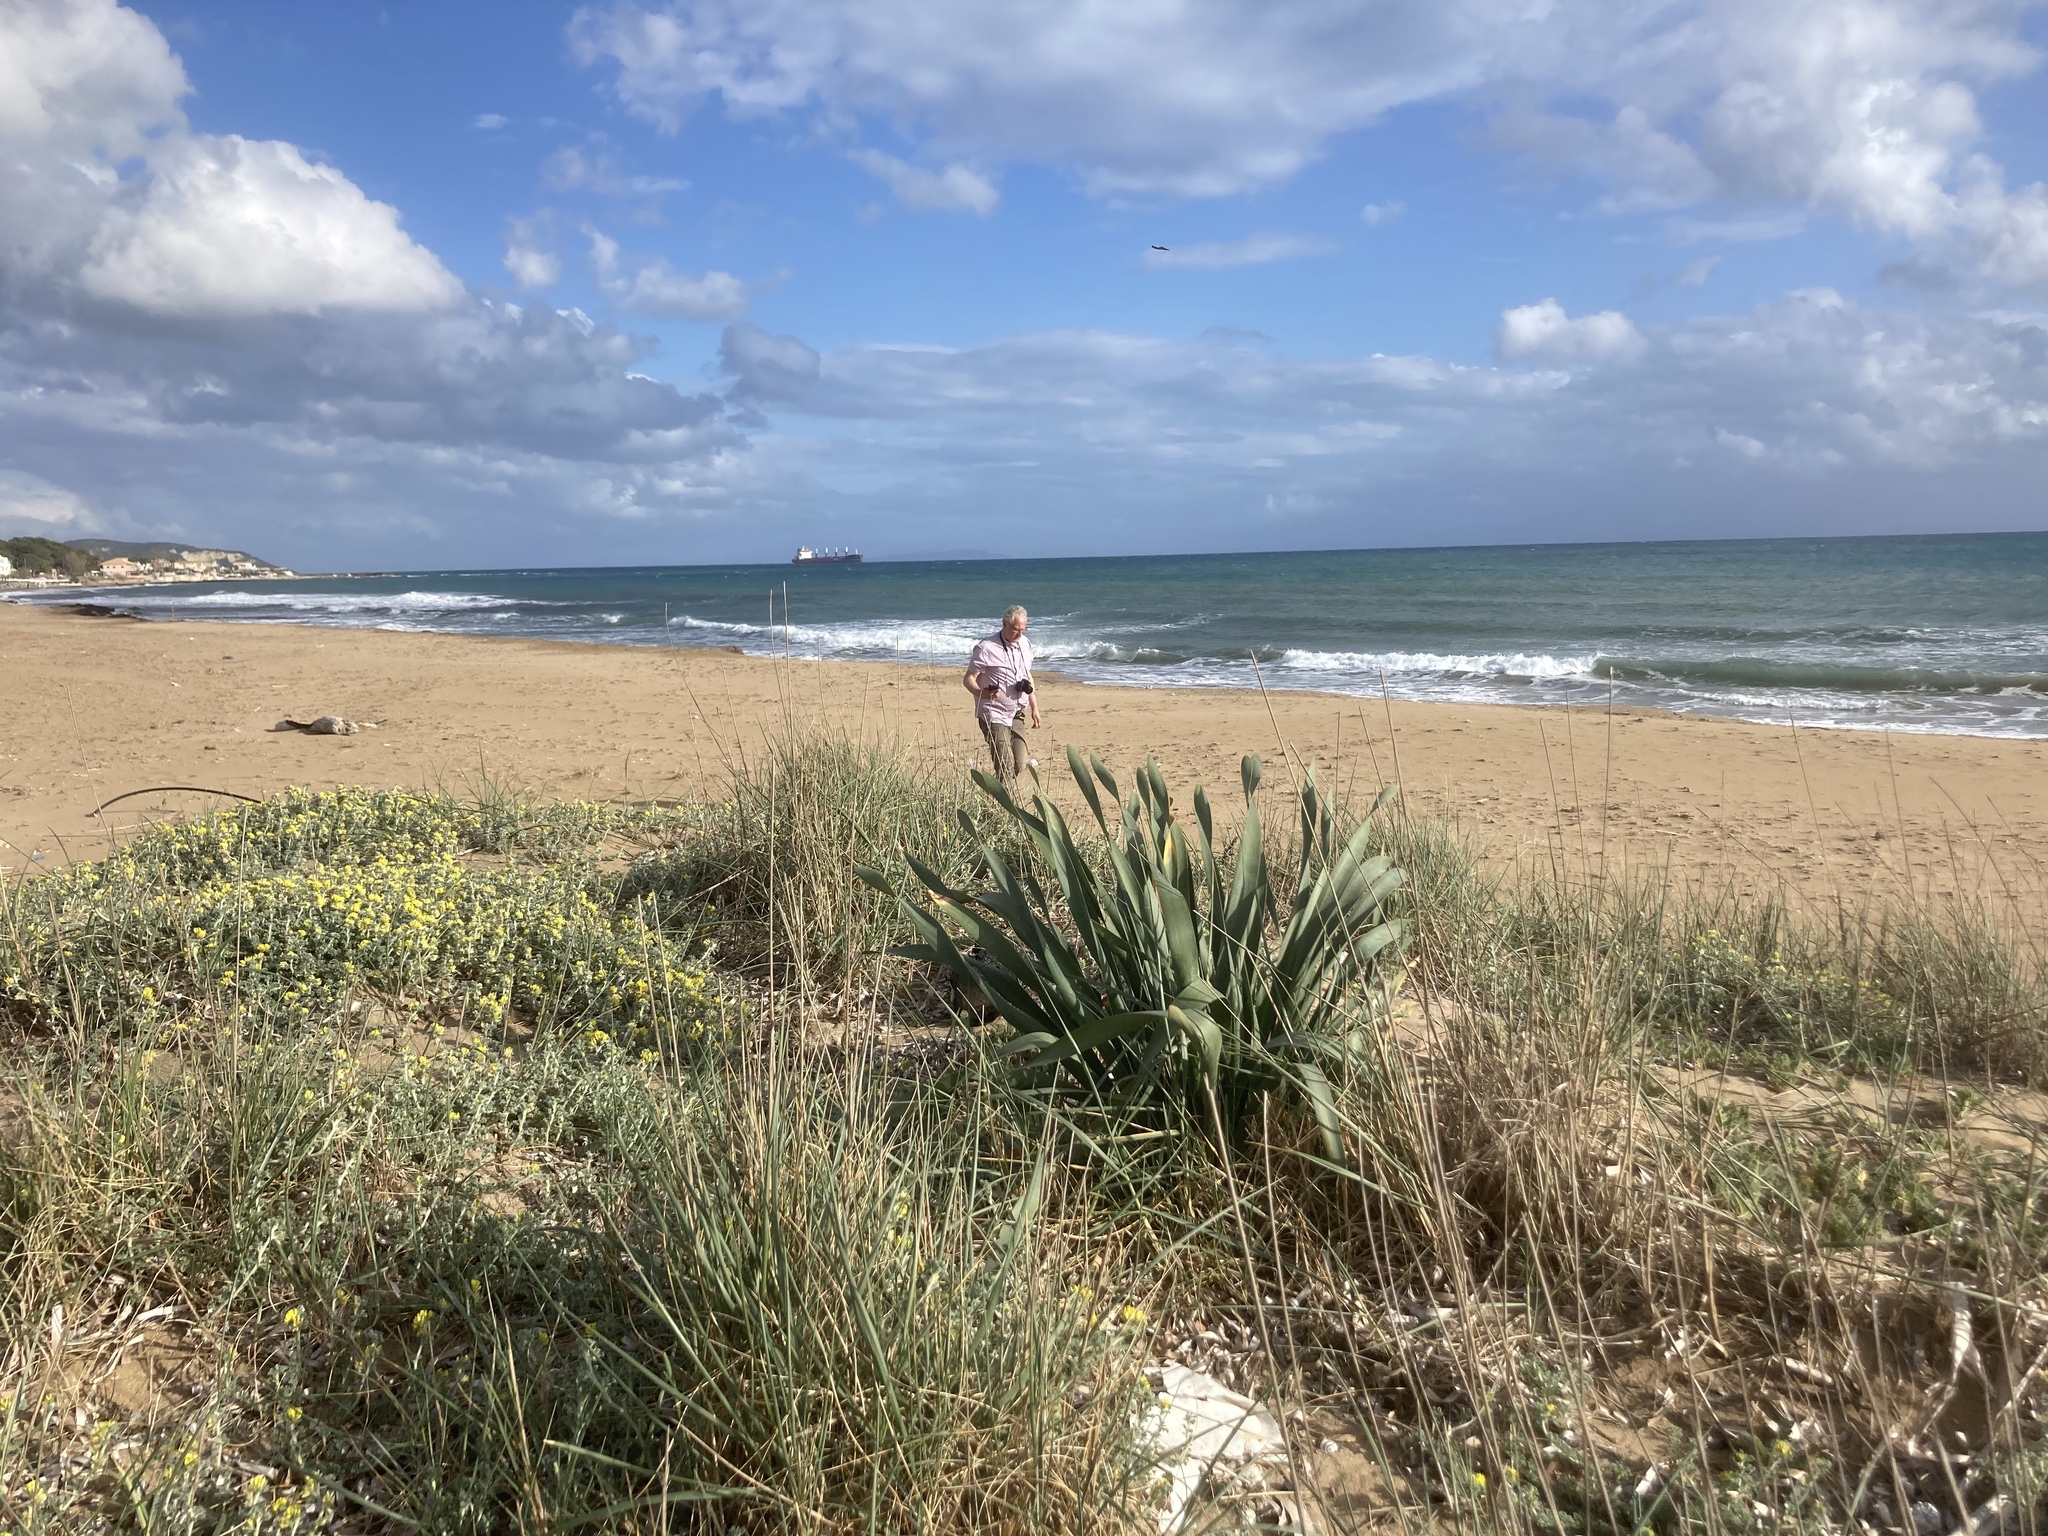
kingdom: Plantae
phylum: Tracheophyta
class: Liliopsida
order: Asparagales
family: Amaryllidaceae
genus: Pancratium
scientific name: Pancratium maritimum
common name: Sea-daffodil
